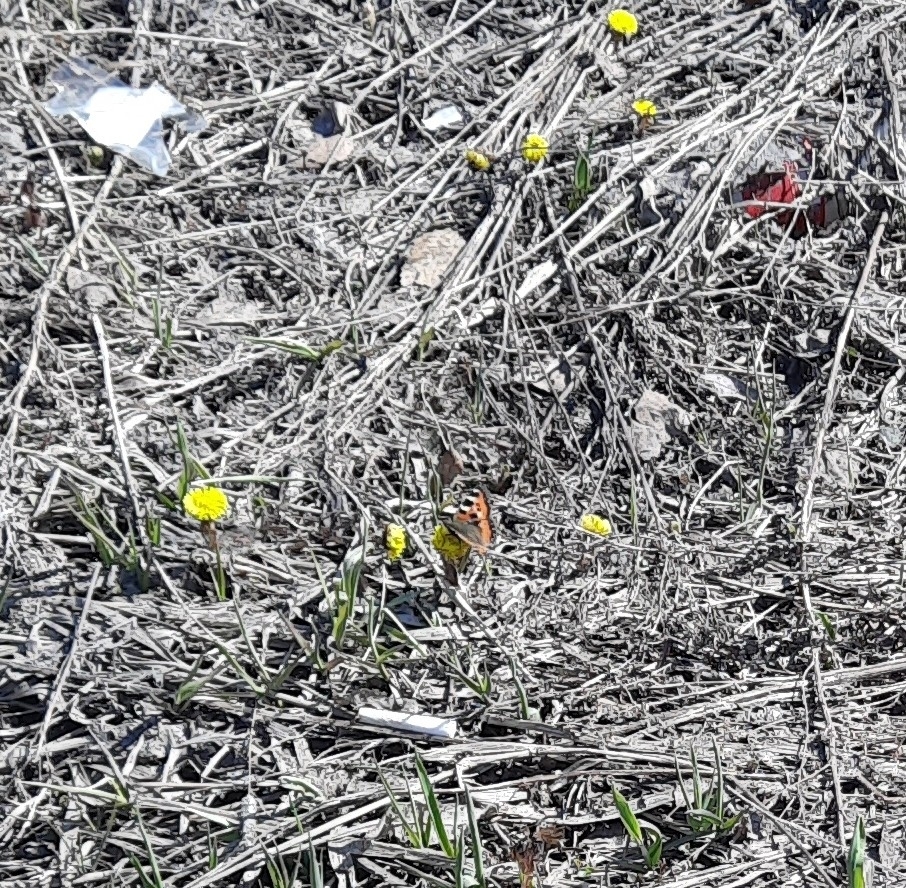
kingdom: Animalia
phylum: Arthropoda
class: Insecta
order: Lepidoptera
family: Nymphalidae
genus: Aglais
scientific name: Aglais urticae
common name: Small tortoiseshell
